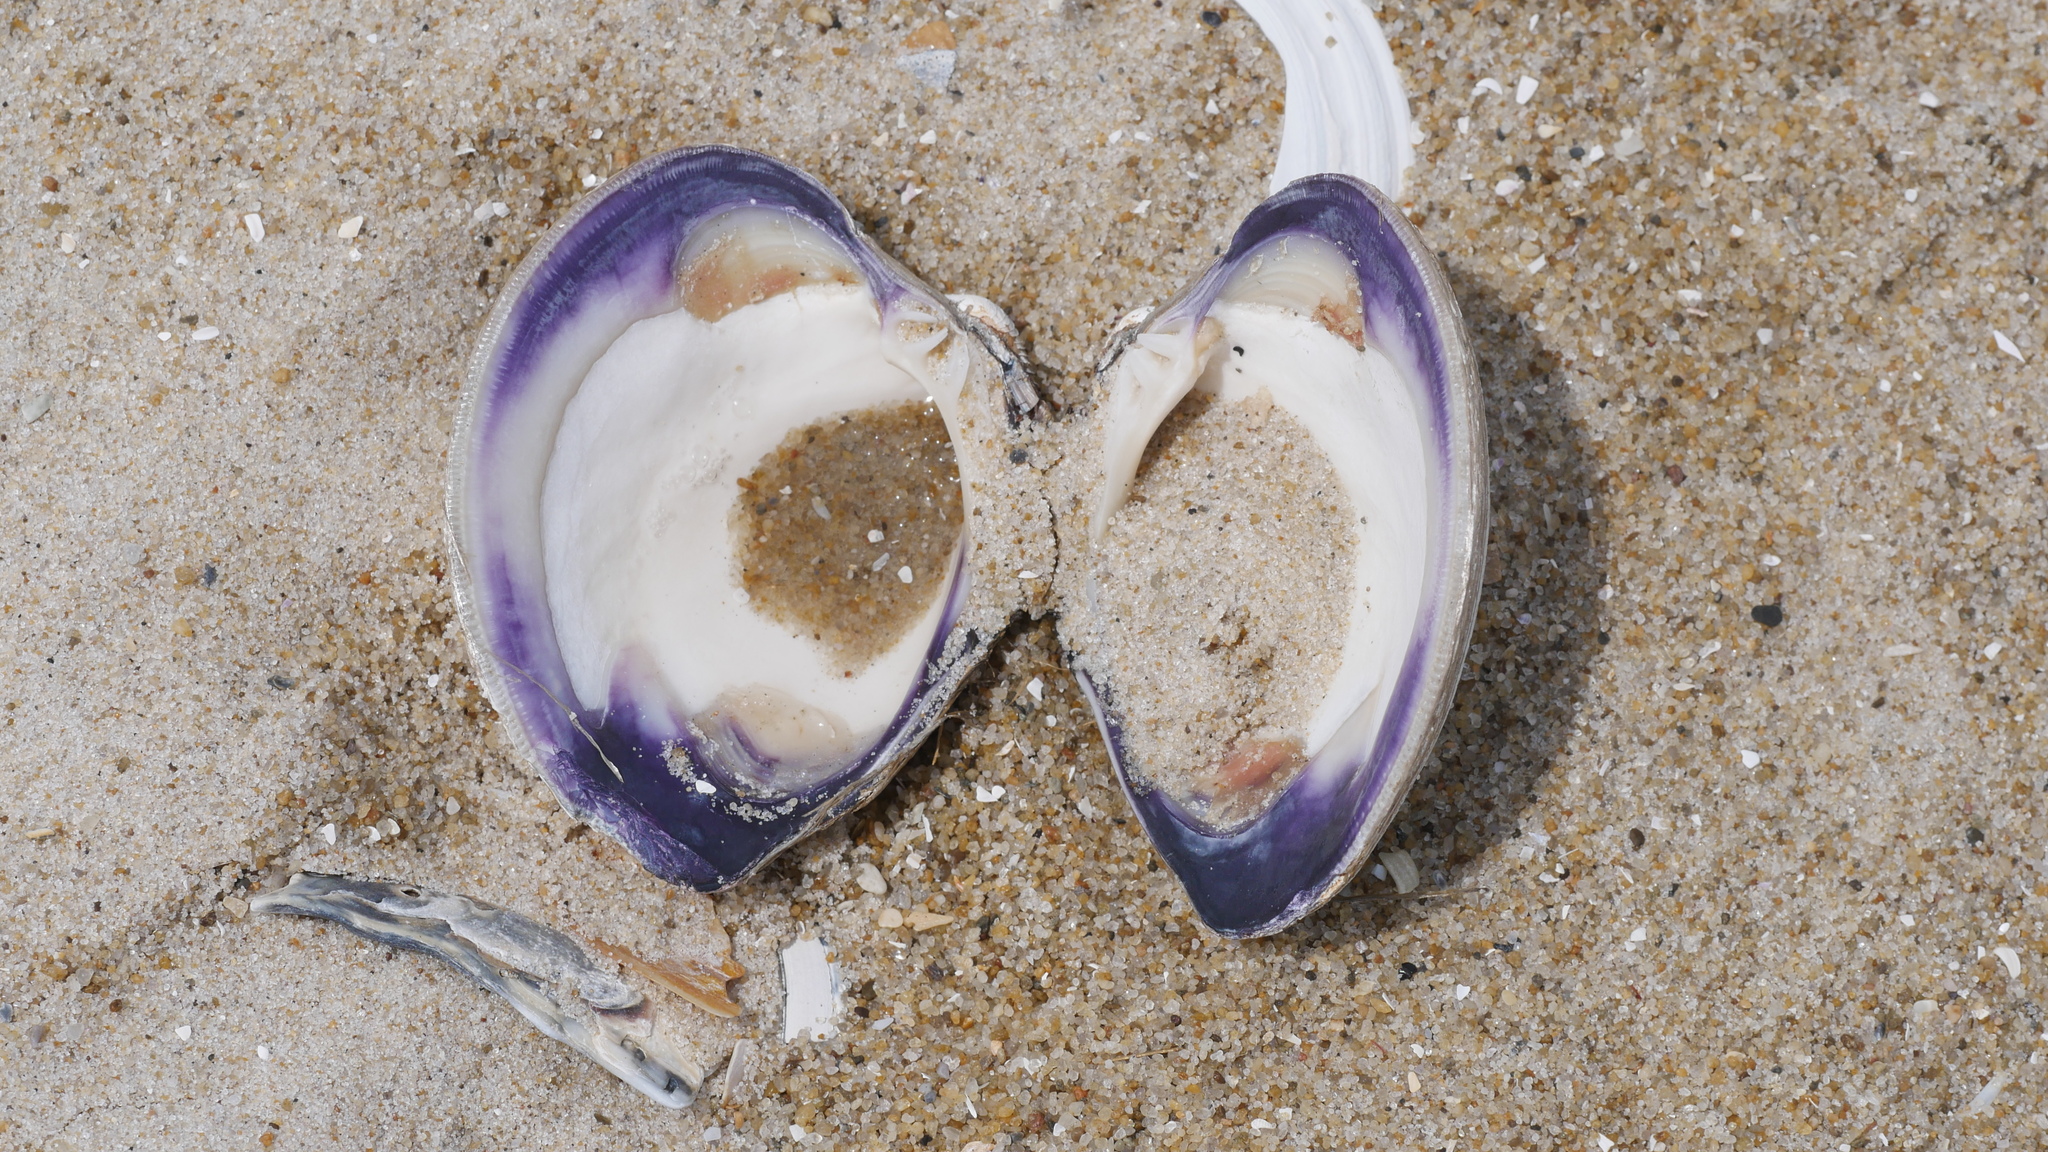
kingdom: Animalia
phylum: Mollusca
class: Bivalvia
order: Venerida
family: Veneridae
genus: Mercenaria
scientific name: Mercenaria mercenaria
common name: American hard-shelled clam
